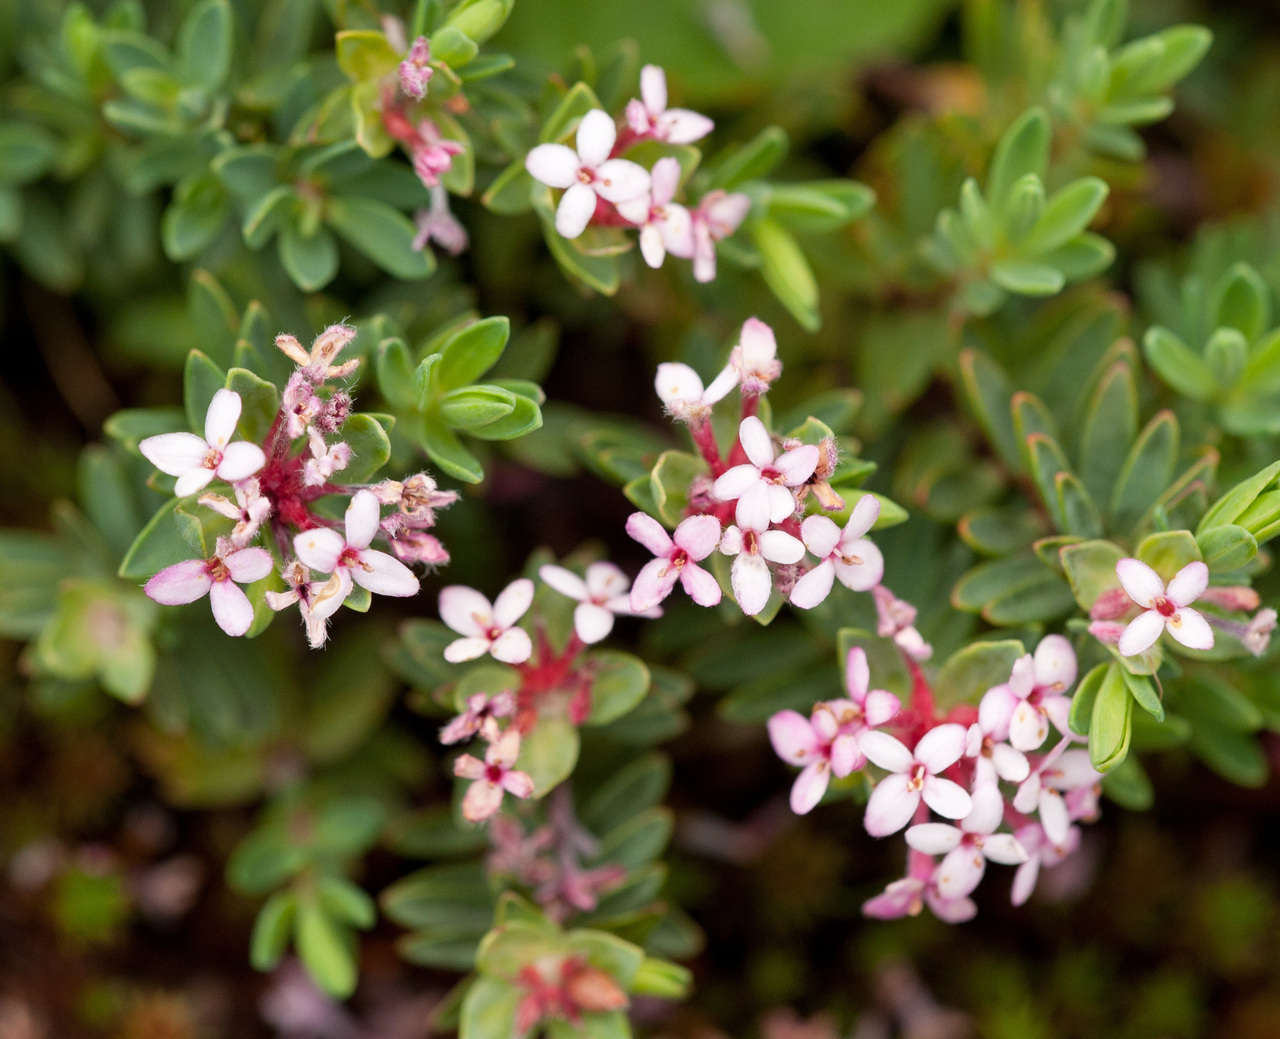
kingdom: Plantae
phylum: Tracheophyta
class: Magnoliopsida
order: Malvales
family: Thymelaeaceae
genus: Pimelea
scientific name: Pimelea alpina
